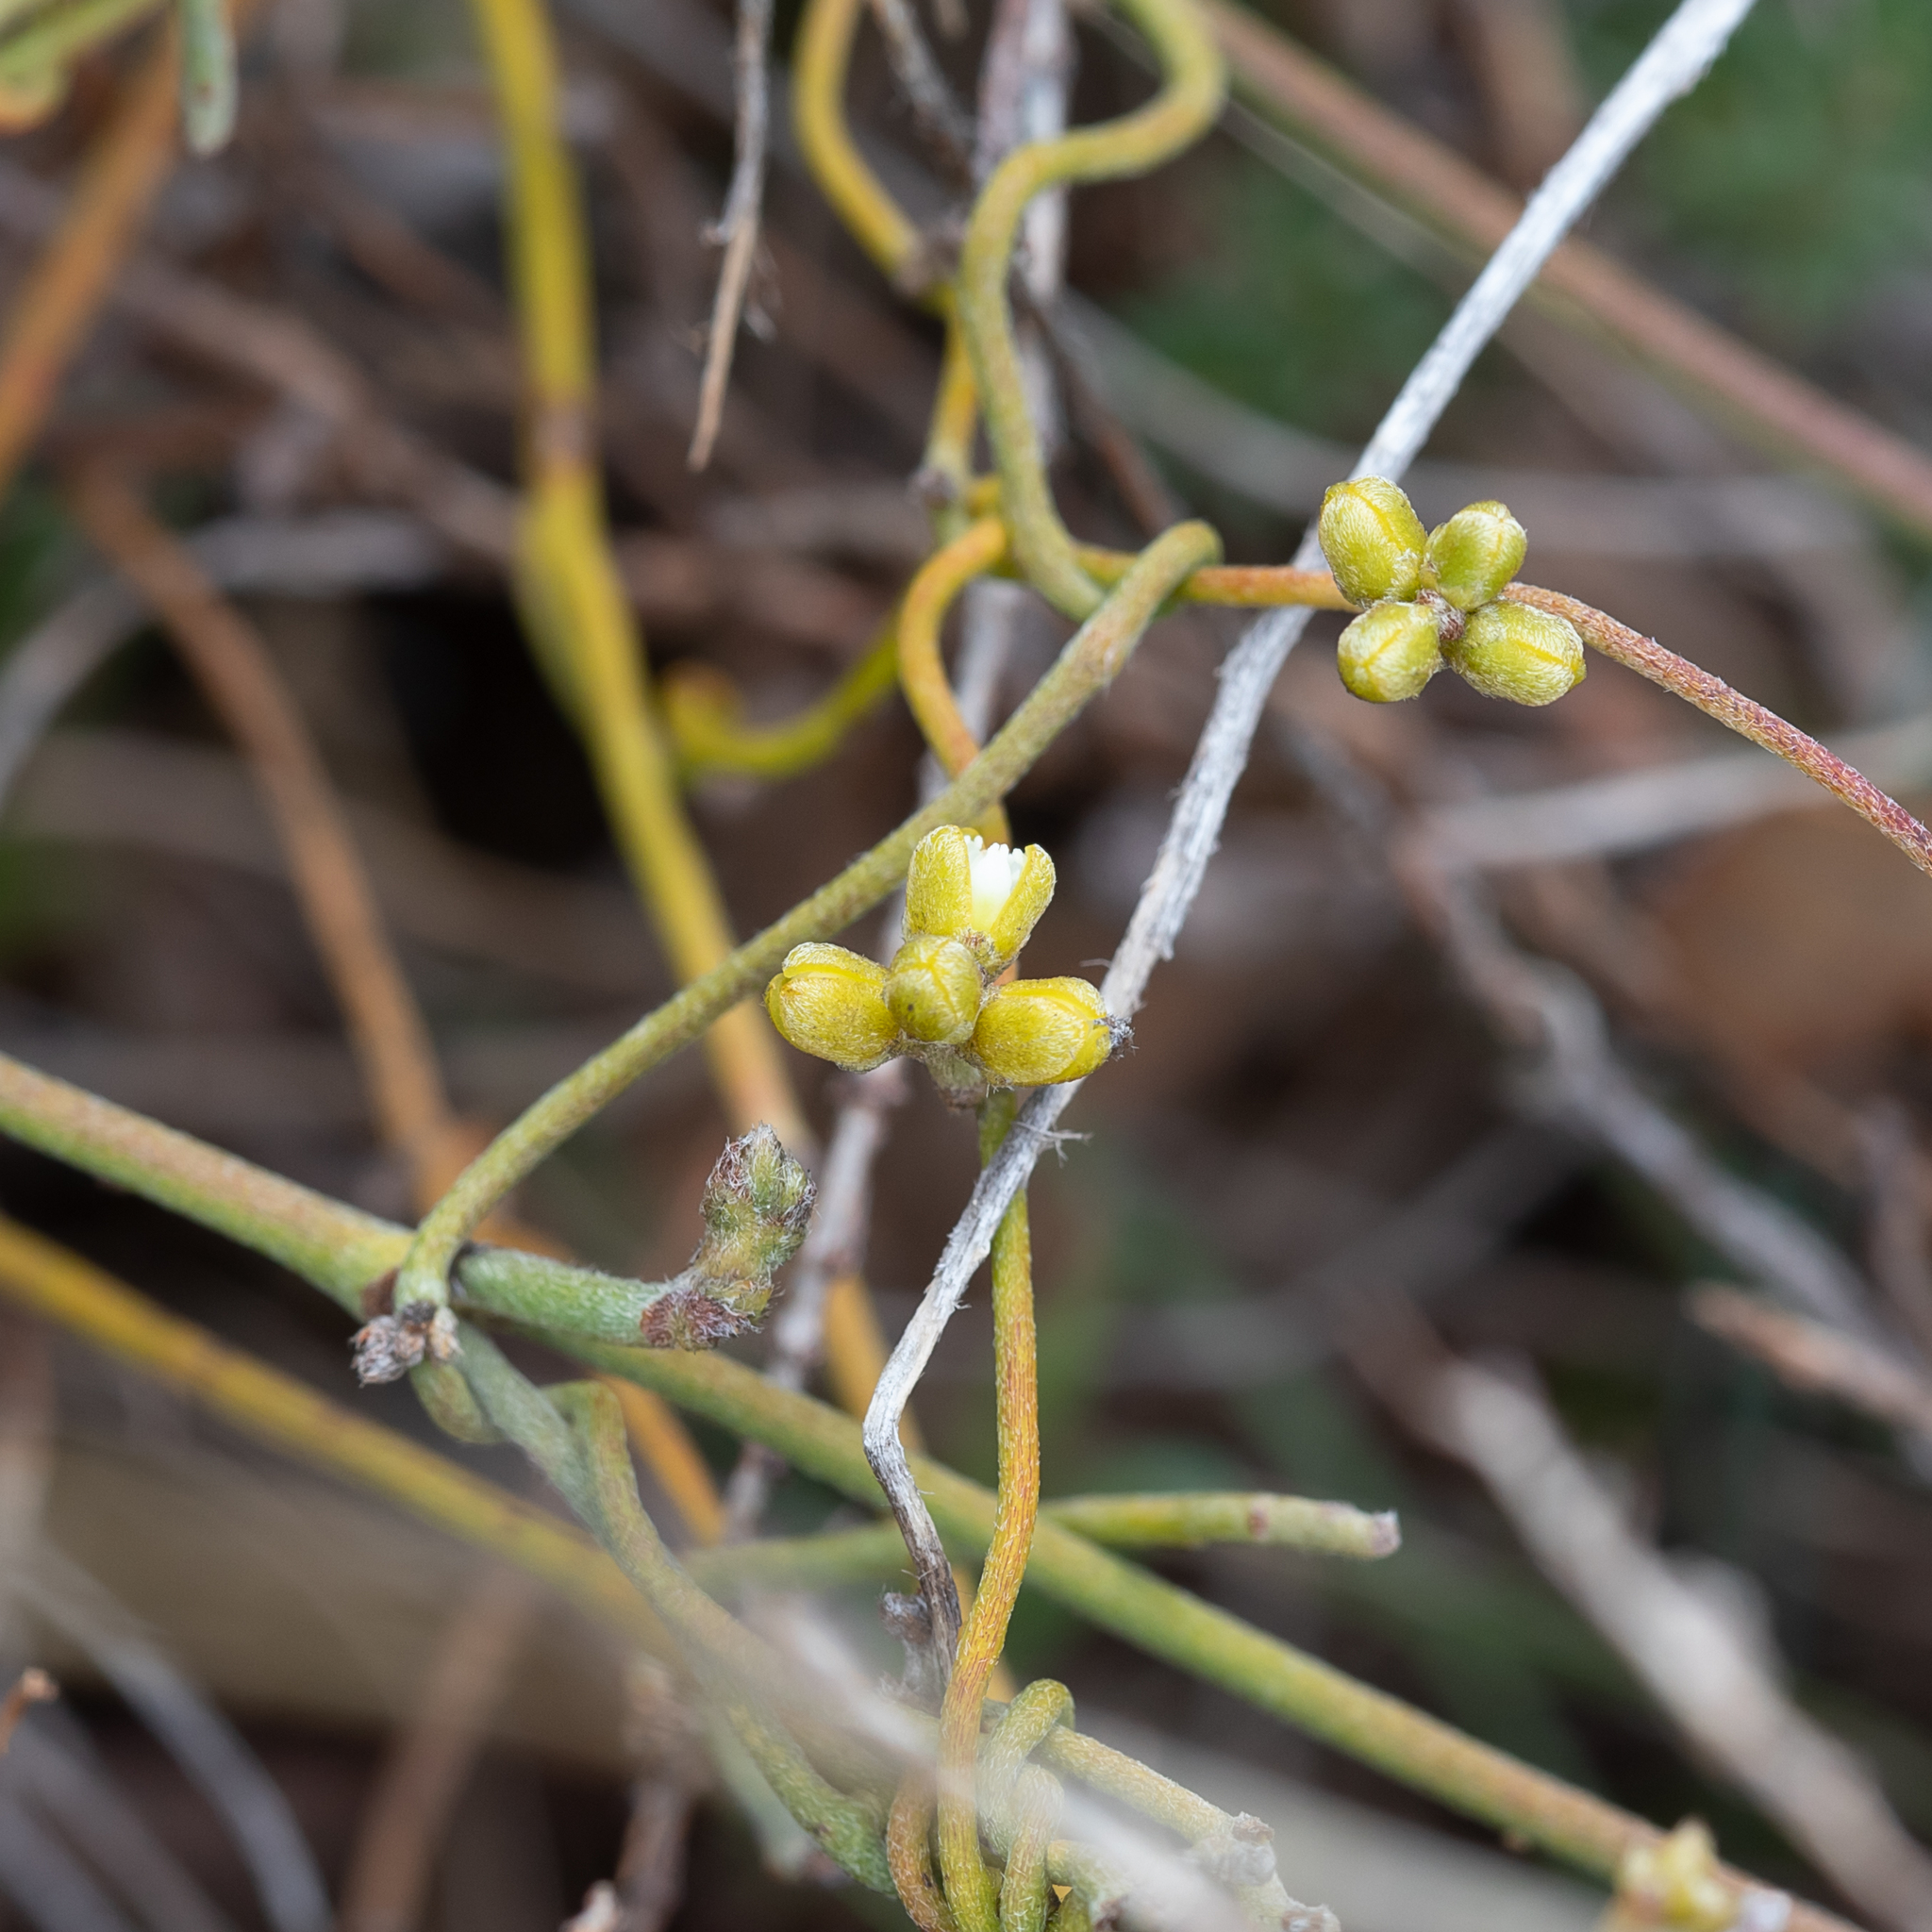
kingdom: Plantae
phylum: Tracheophyta
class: Magnoliopsida
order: Laurales
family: Lauraceae
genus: Cassytha
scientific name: Cassytha pubescens
